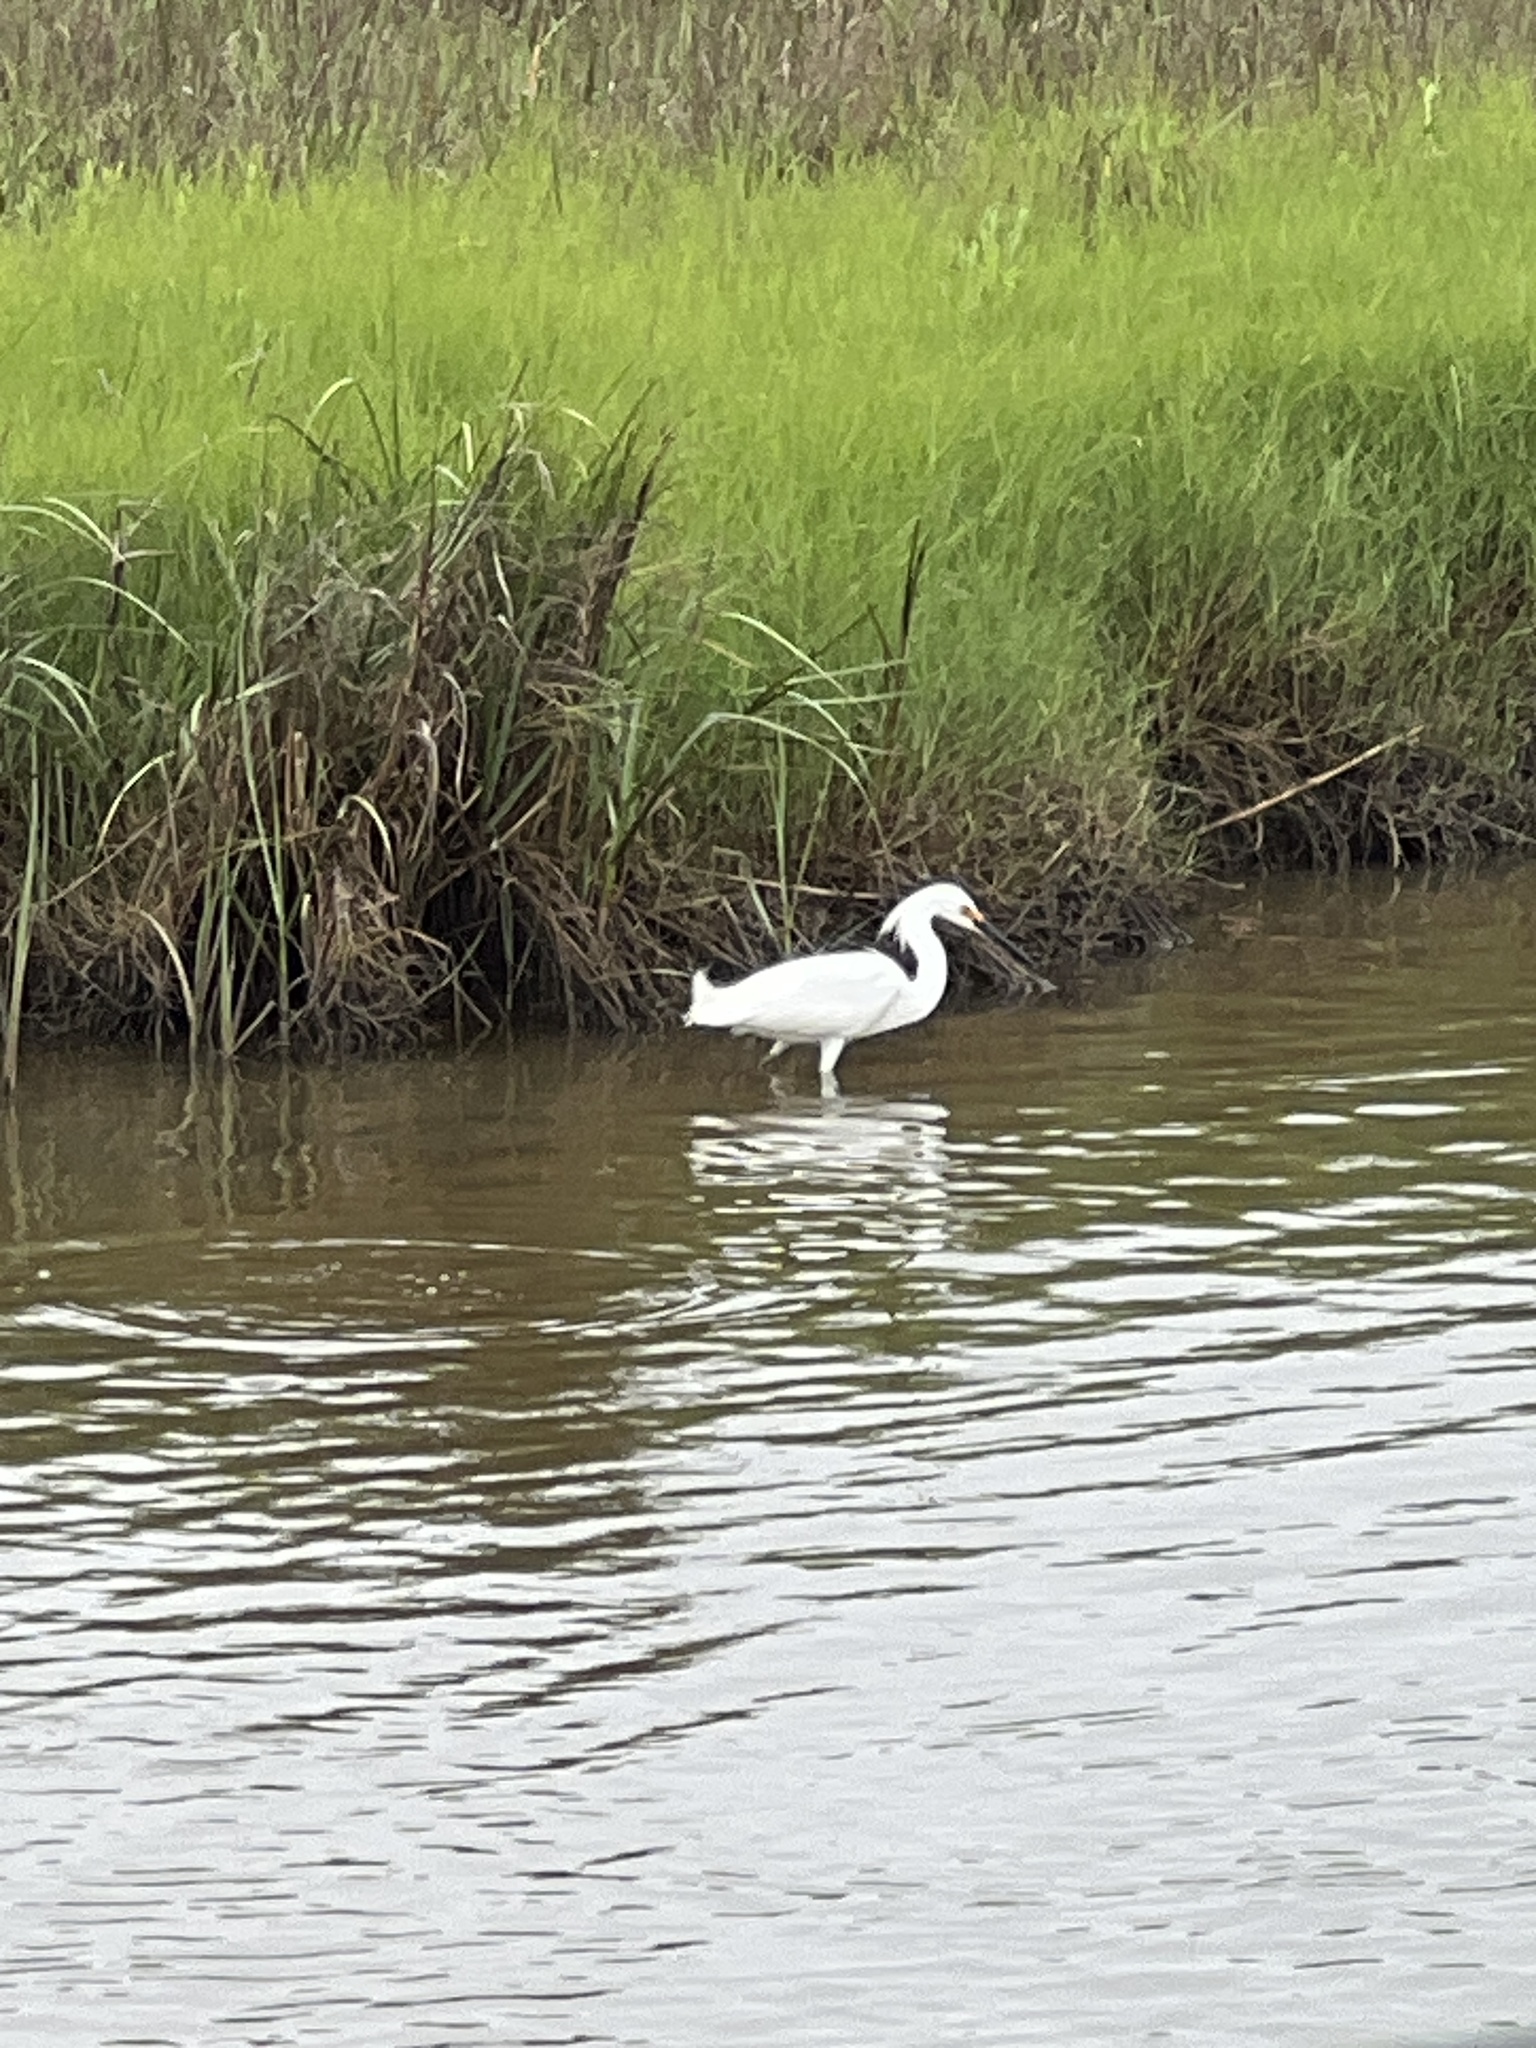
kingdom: Animalia
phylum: Chordata
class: Aves
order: Pelecaniformes
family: Ardeidae
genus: Egretta
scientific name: Egretta thula
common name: Snowy egret
